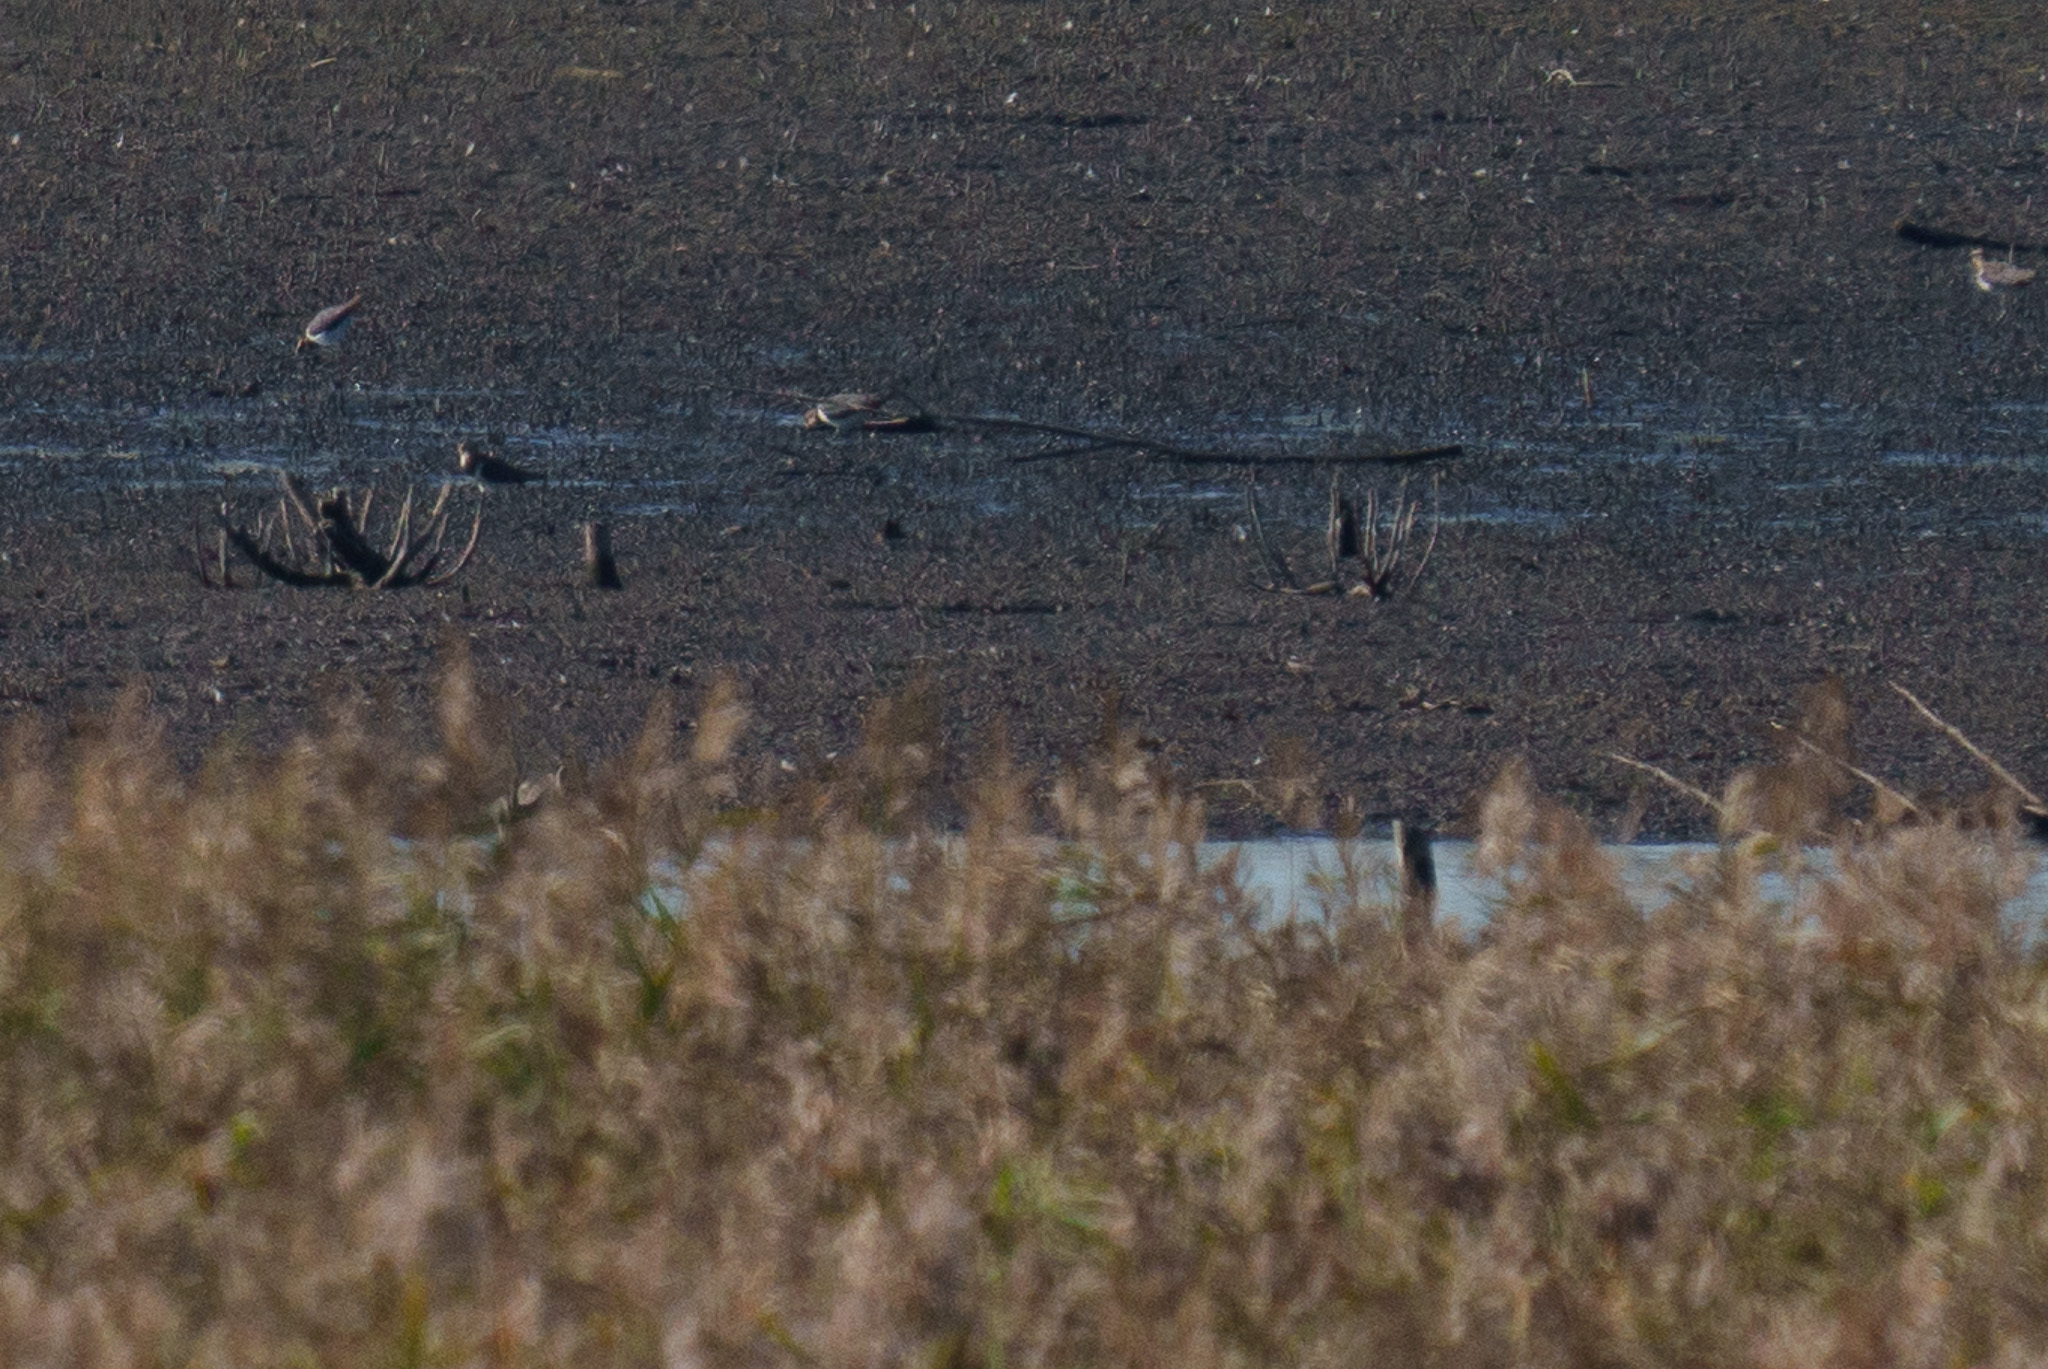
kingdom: Animalia
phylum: Chordata
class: Aves
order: Charadriiformes
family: Charadriidae
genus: Vanellus
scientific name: Vanellus vanellus
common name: Northern lapwing
